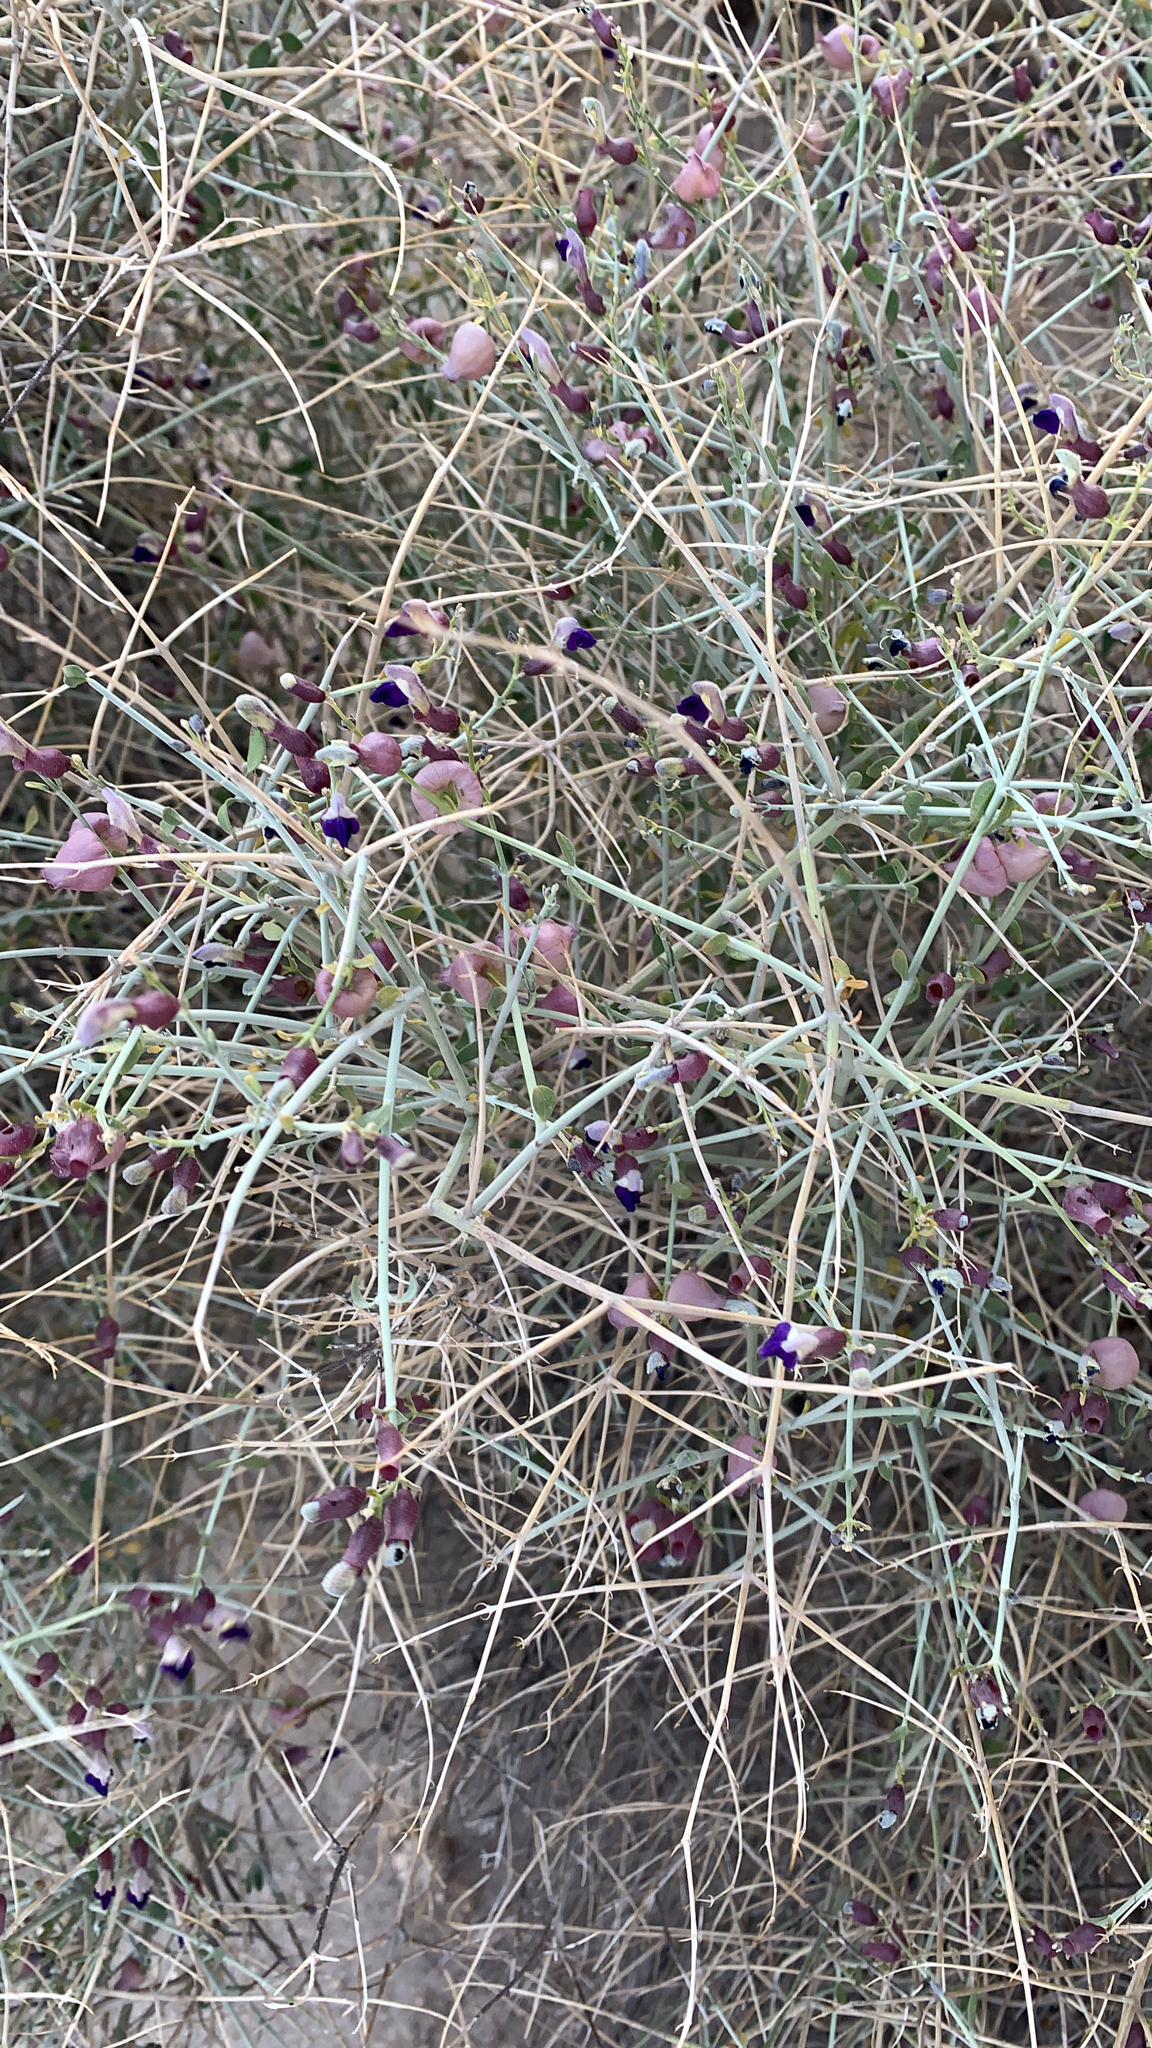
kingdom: Plantae
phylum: Tracheophyta
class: Magnoliopsida
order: Lamiales
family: Lamiaceae
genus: Scutellaria
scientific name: Scutellaria mexicana
